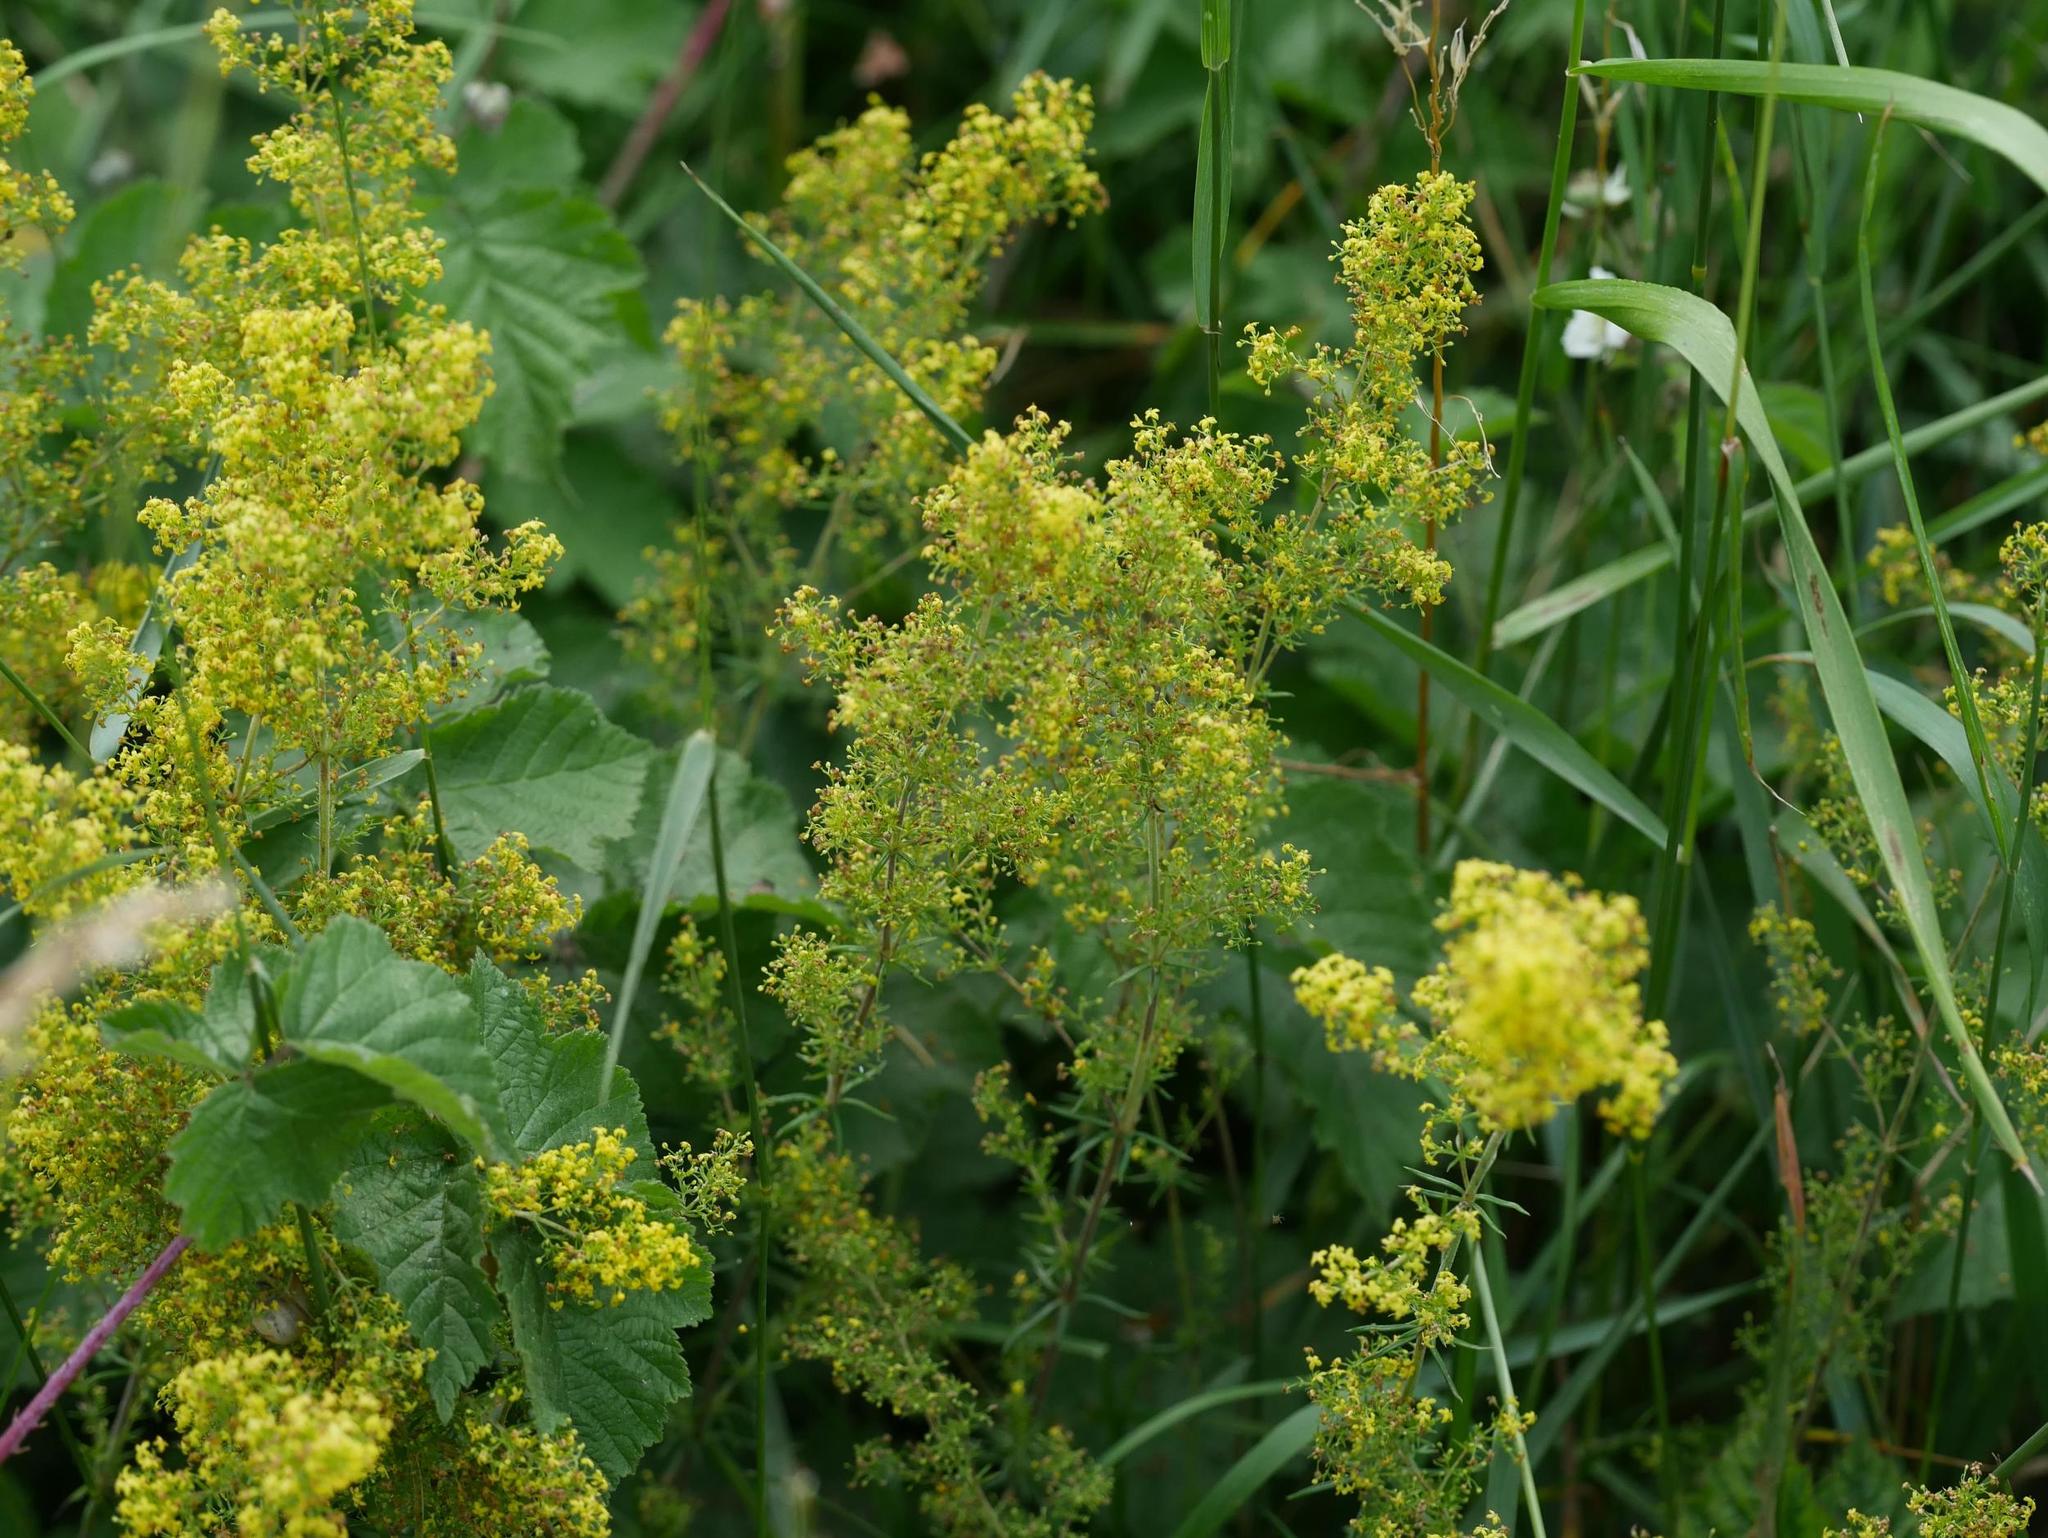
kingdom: Plantae
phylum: Tracheophyta
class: Magnoliopsida
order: Gentianales
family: Rubiaceae
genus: Galium
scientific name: Galium verum
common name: Lady's bedstraw
